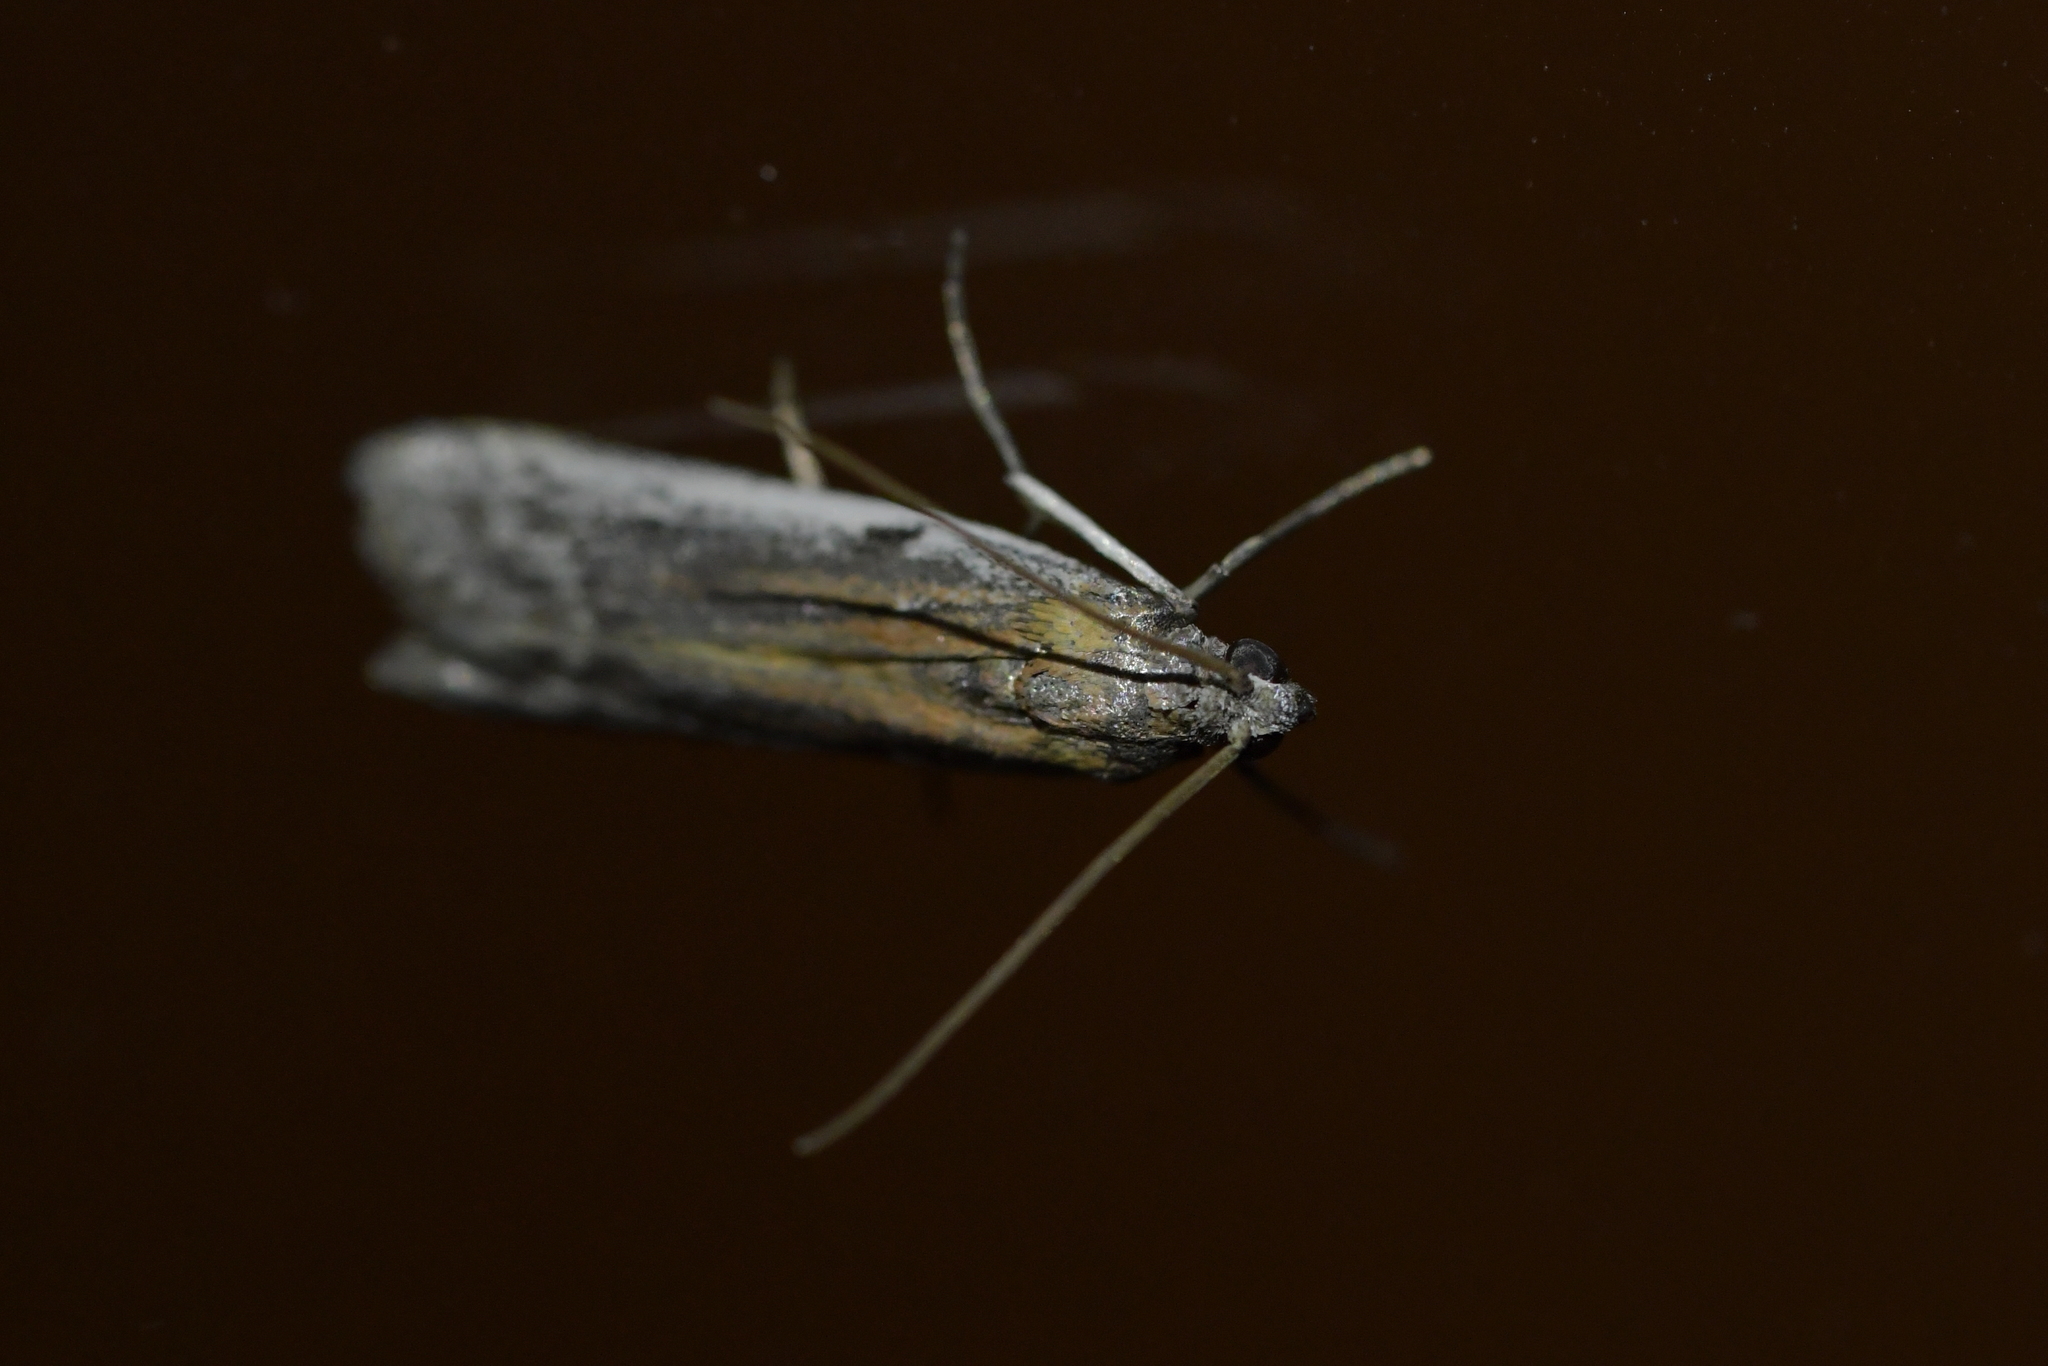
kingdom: Animalia
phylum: Arthropoda
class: Insecta
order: Lepidoptera
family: Pyralidae
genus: Patagoniodes
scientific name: Patagoniodes farinaria
